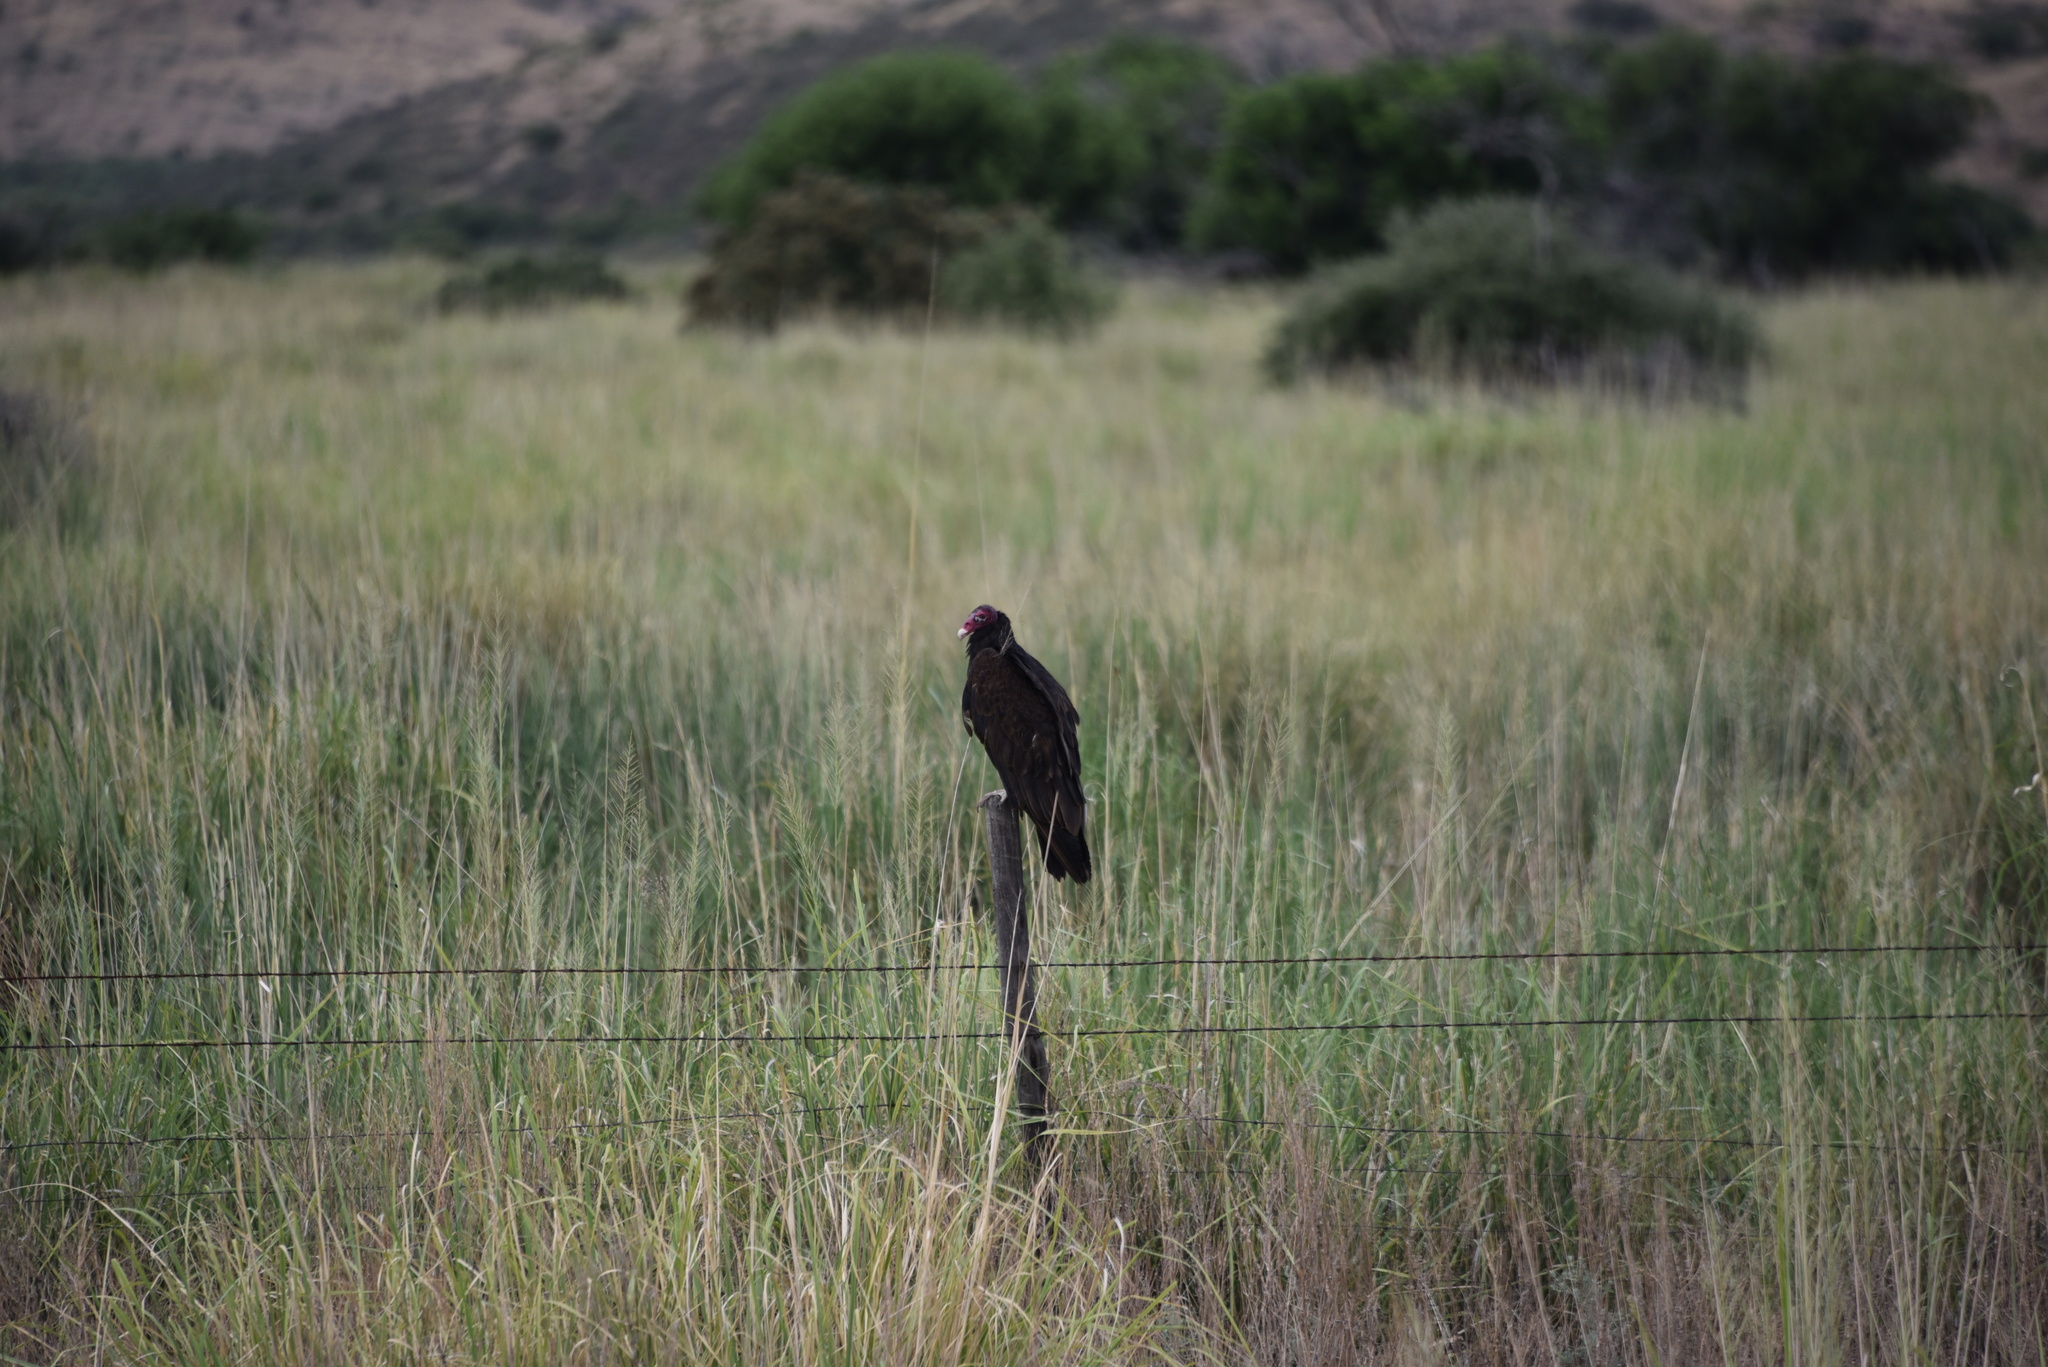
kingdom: Animalia
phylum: Chordata
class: Aves
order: Accipitriformes
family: Cathartidae
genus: Cathartes
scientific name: Cathartes aura
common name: Turkey vulture
